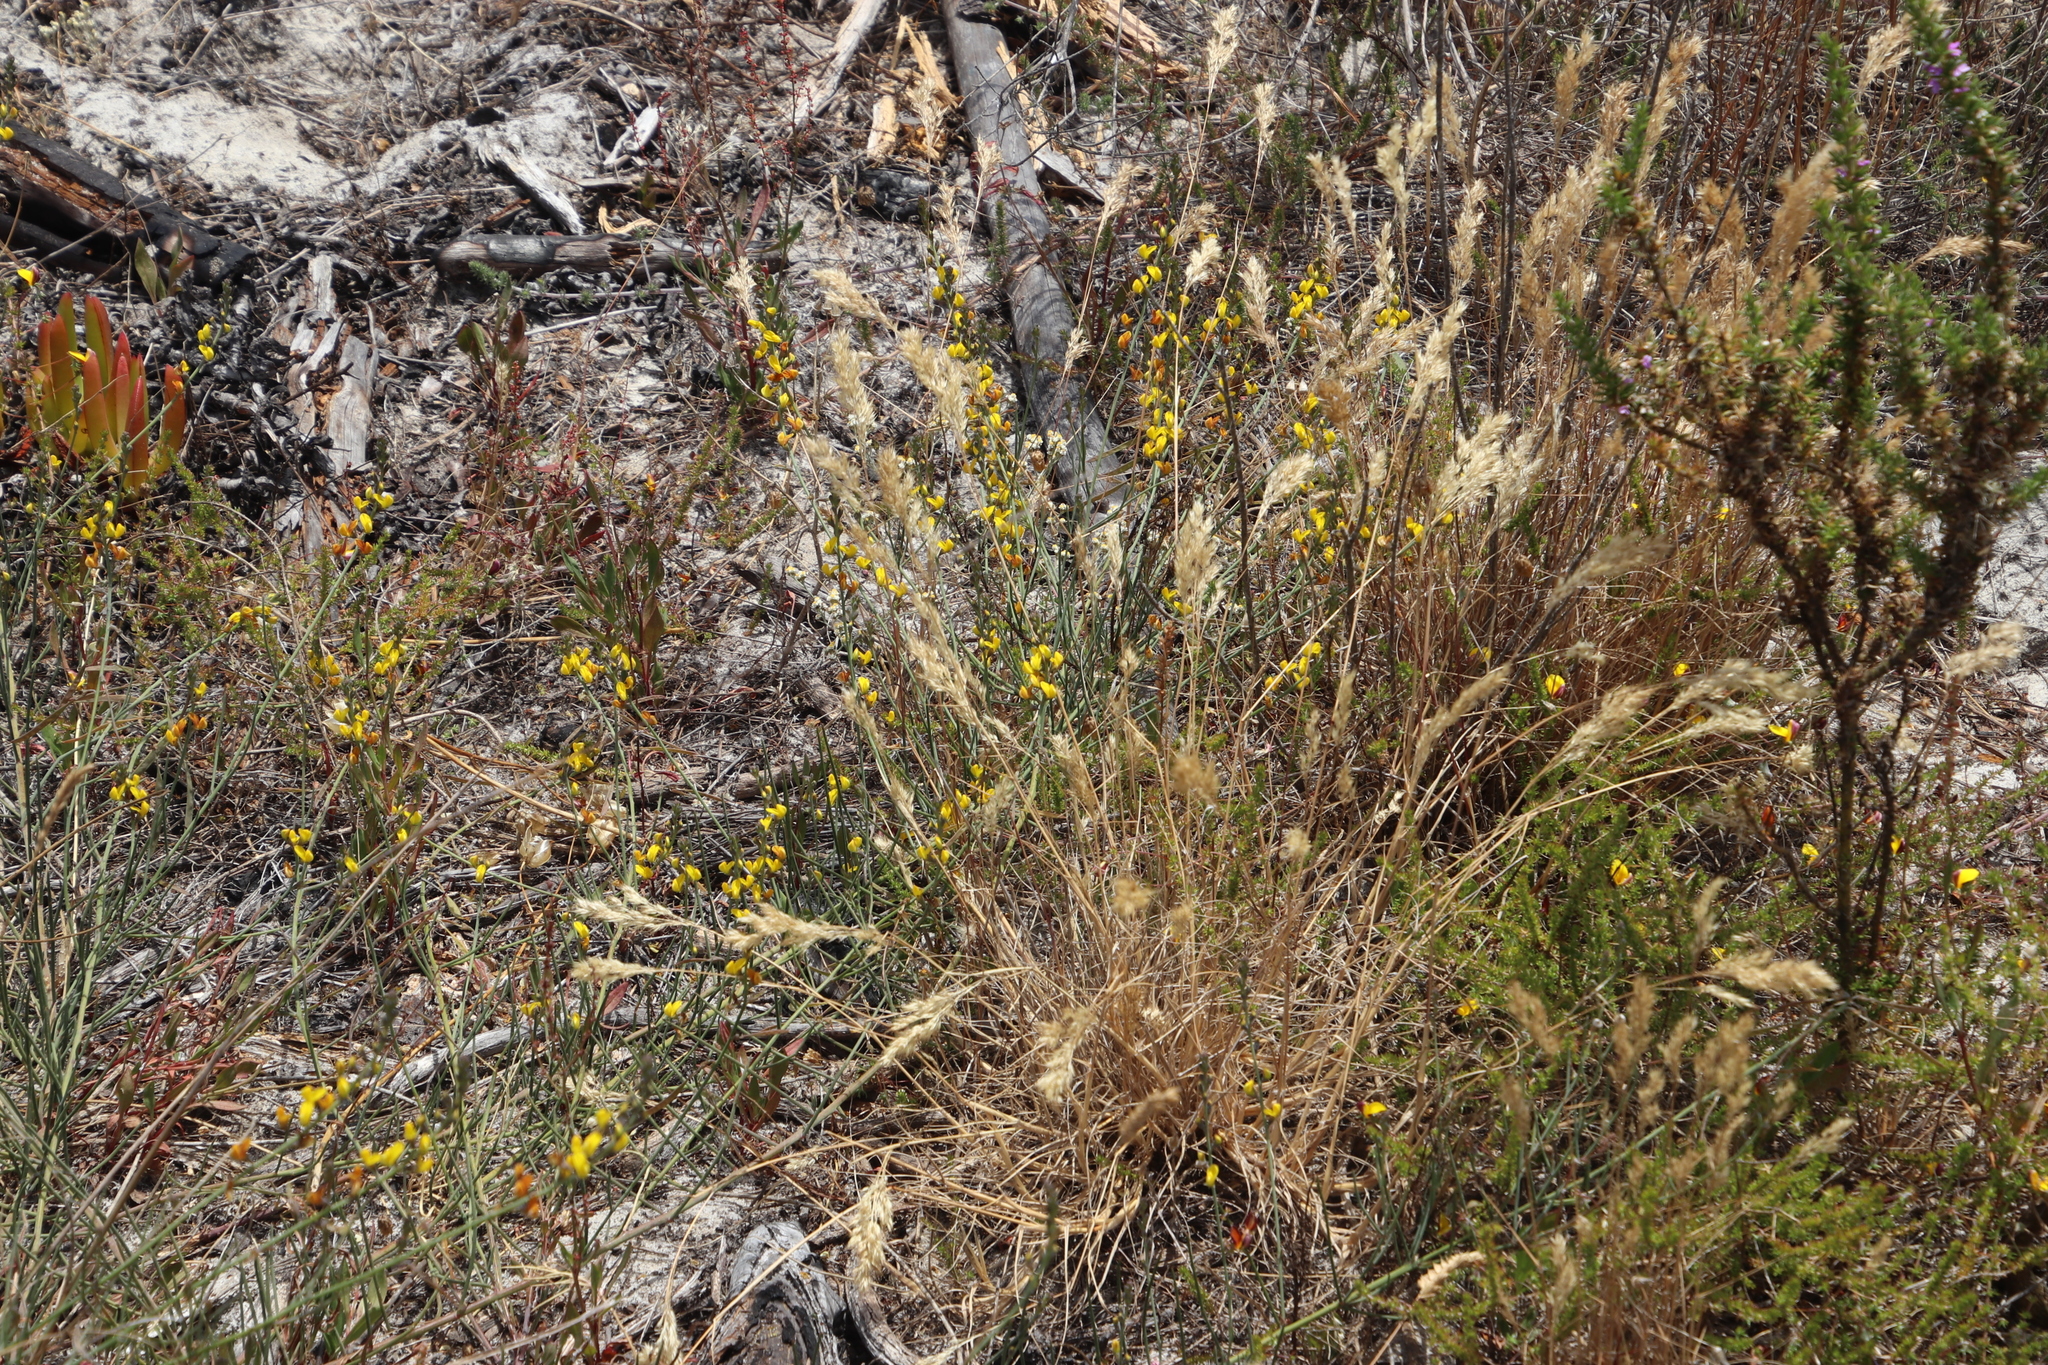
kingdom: Plantae
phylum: Tracheophyta
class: Magnoliopsida
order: Fabales
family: Fabaceae
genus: Lebeckia
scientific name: Lebeckia contaminata
